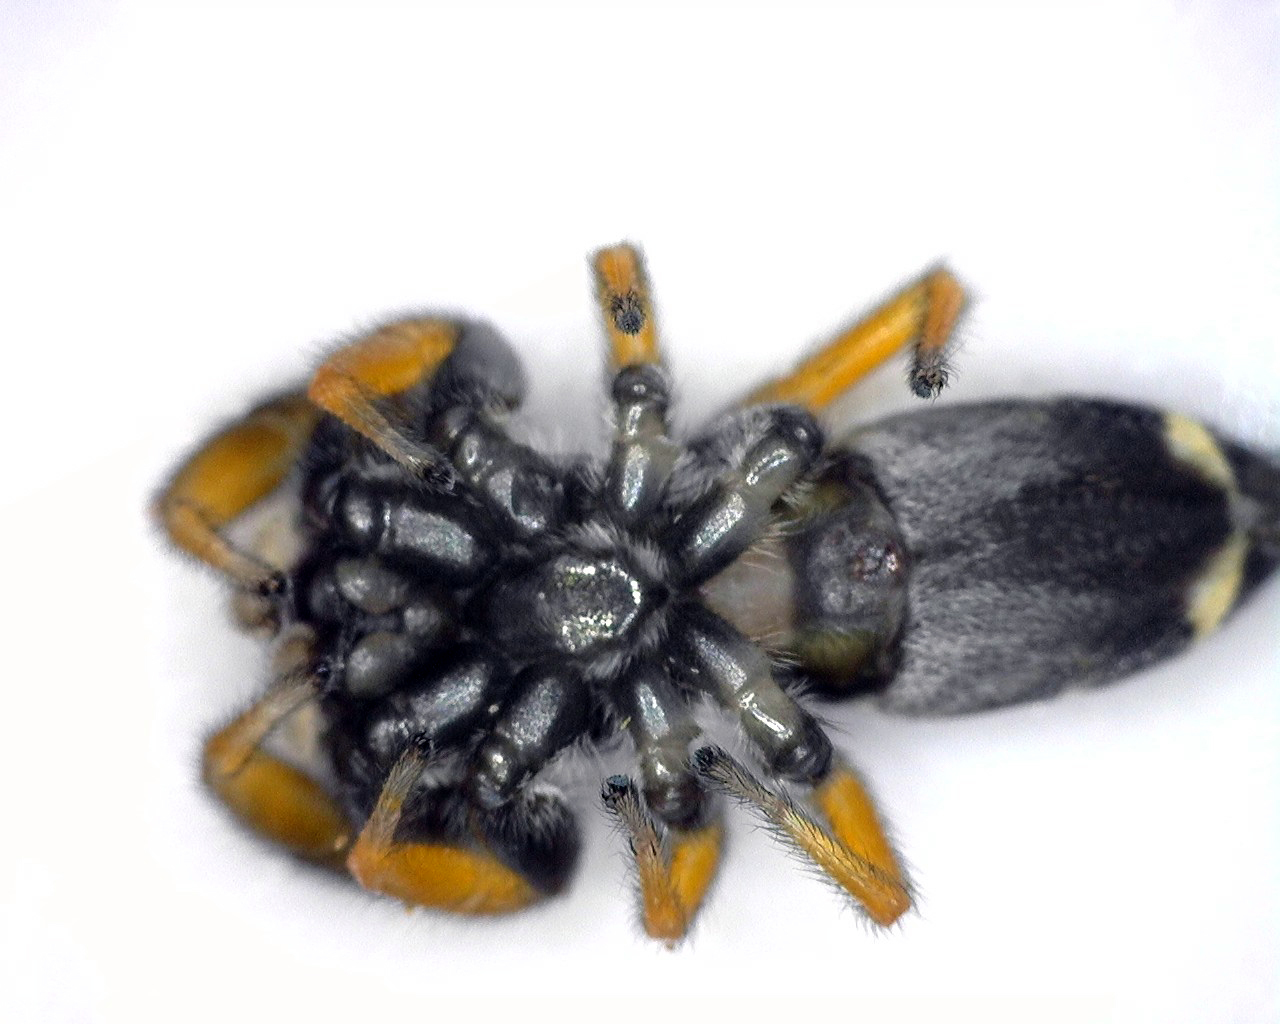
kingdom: Animalia
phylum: Arthropoda
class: Arachnida
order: Araneae
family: Salticidae
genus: Apricia
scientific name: Apricia jovialis
